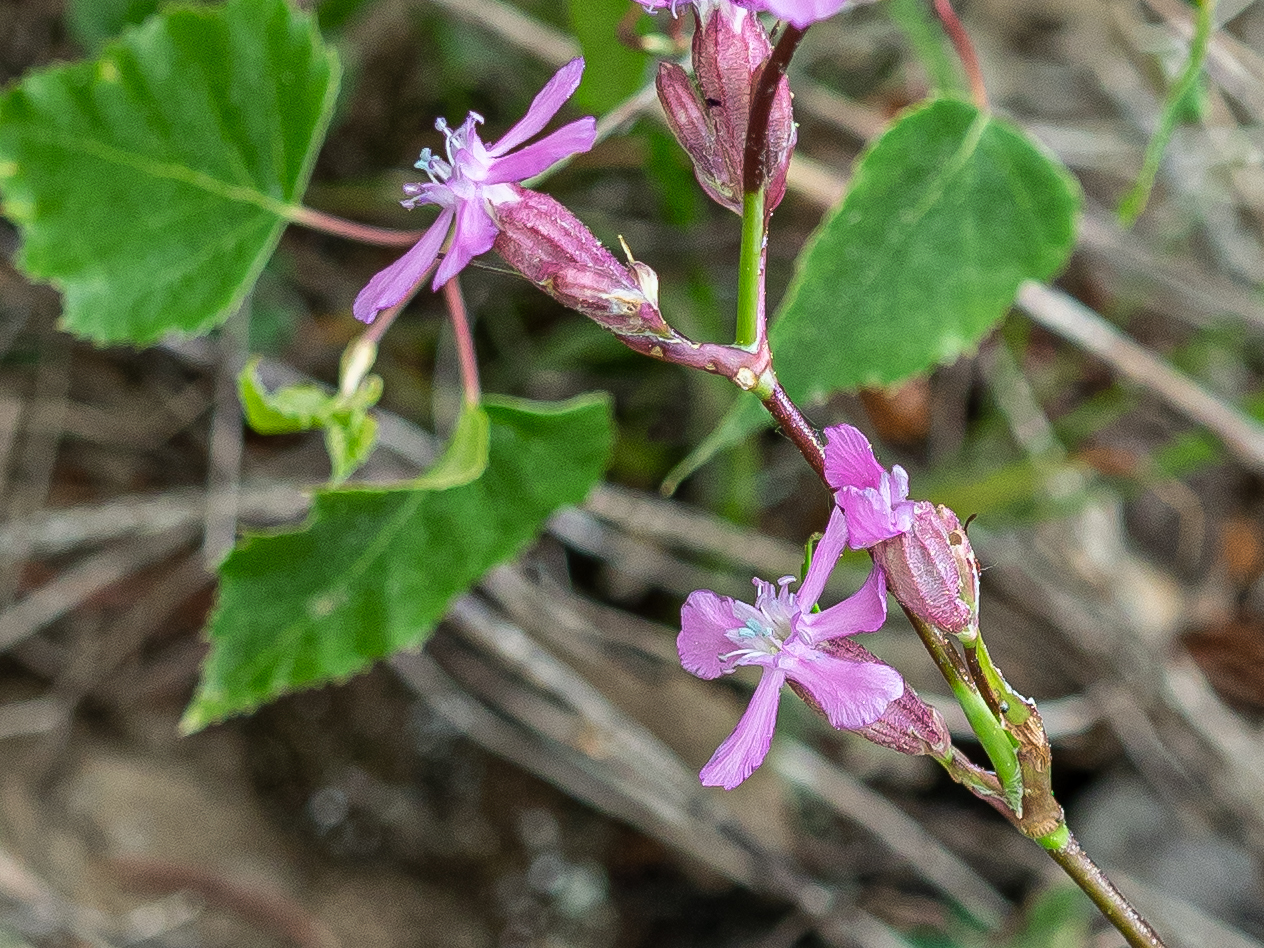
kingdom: Plantae
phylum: Tracheophyta
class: Magnoliopsida
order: Caryophyllales
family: Caryophyllaceae
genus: Viscaria
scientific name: Viscaria vulgaris
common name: Clammy campion
